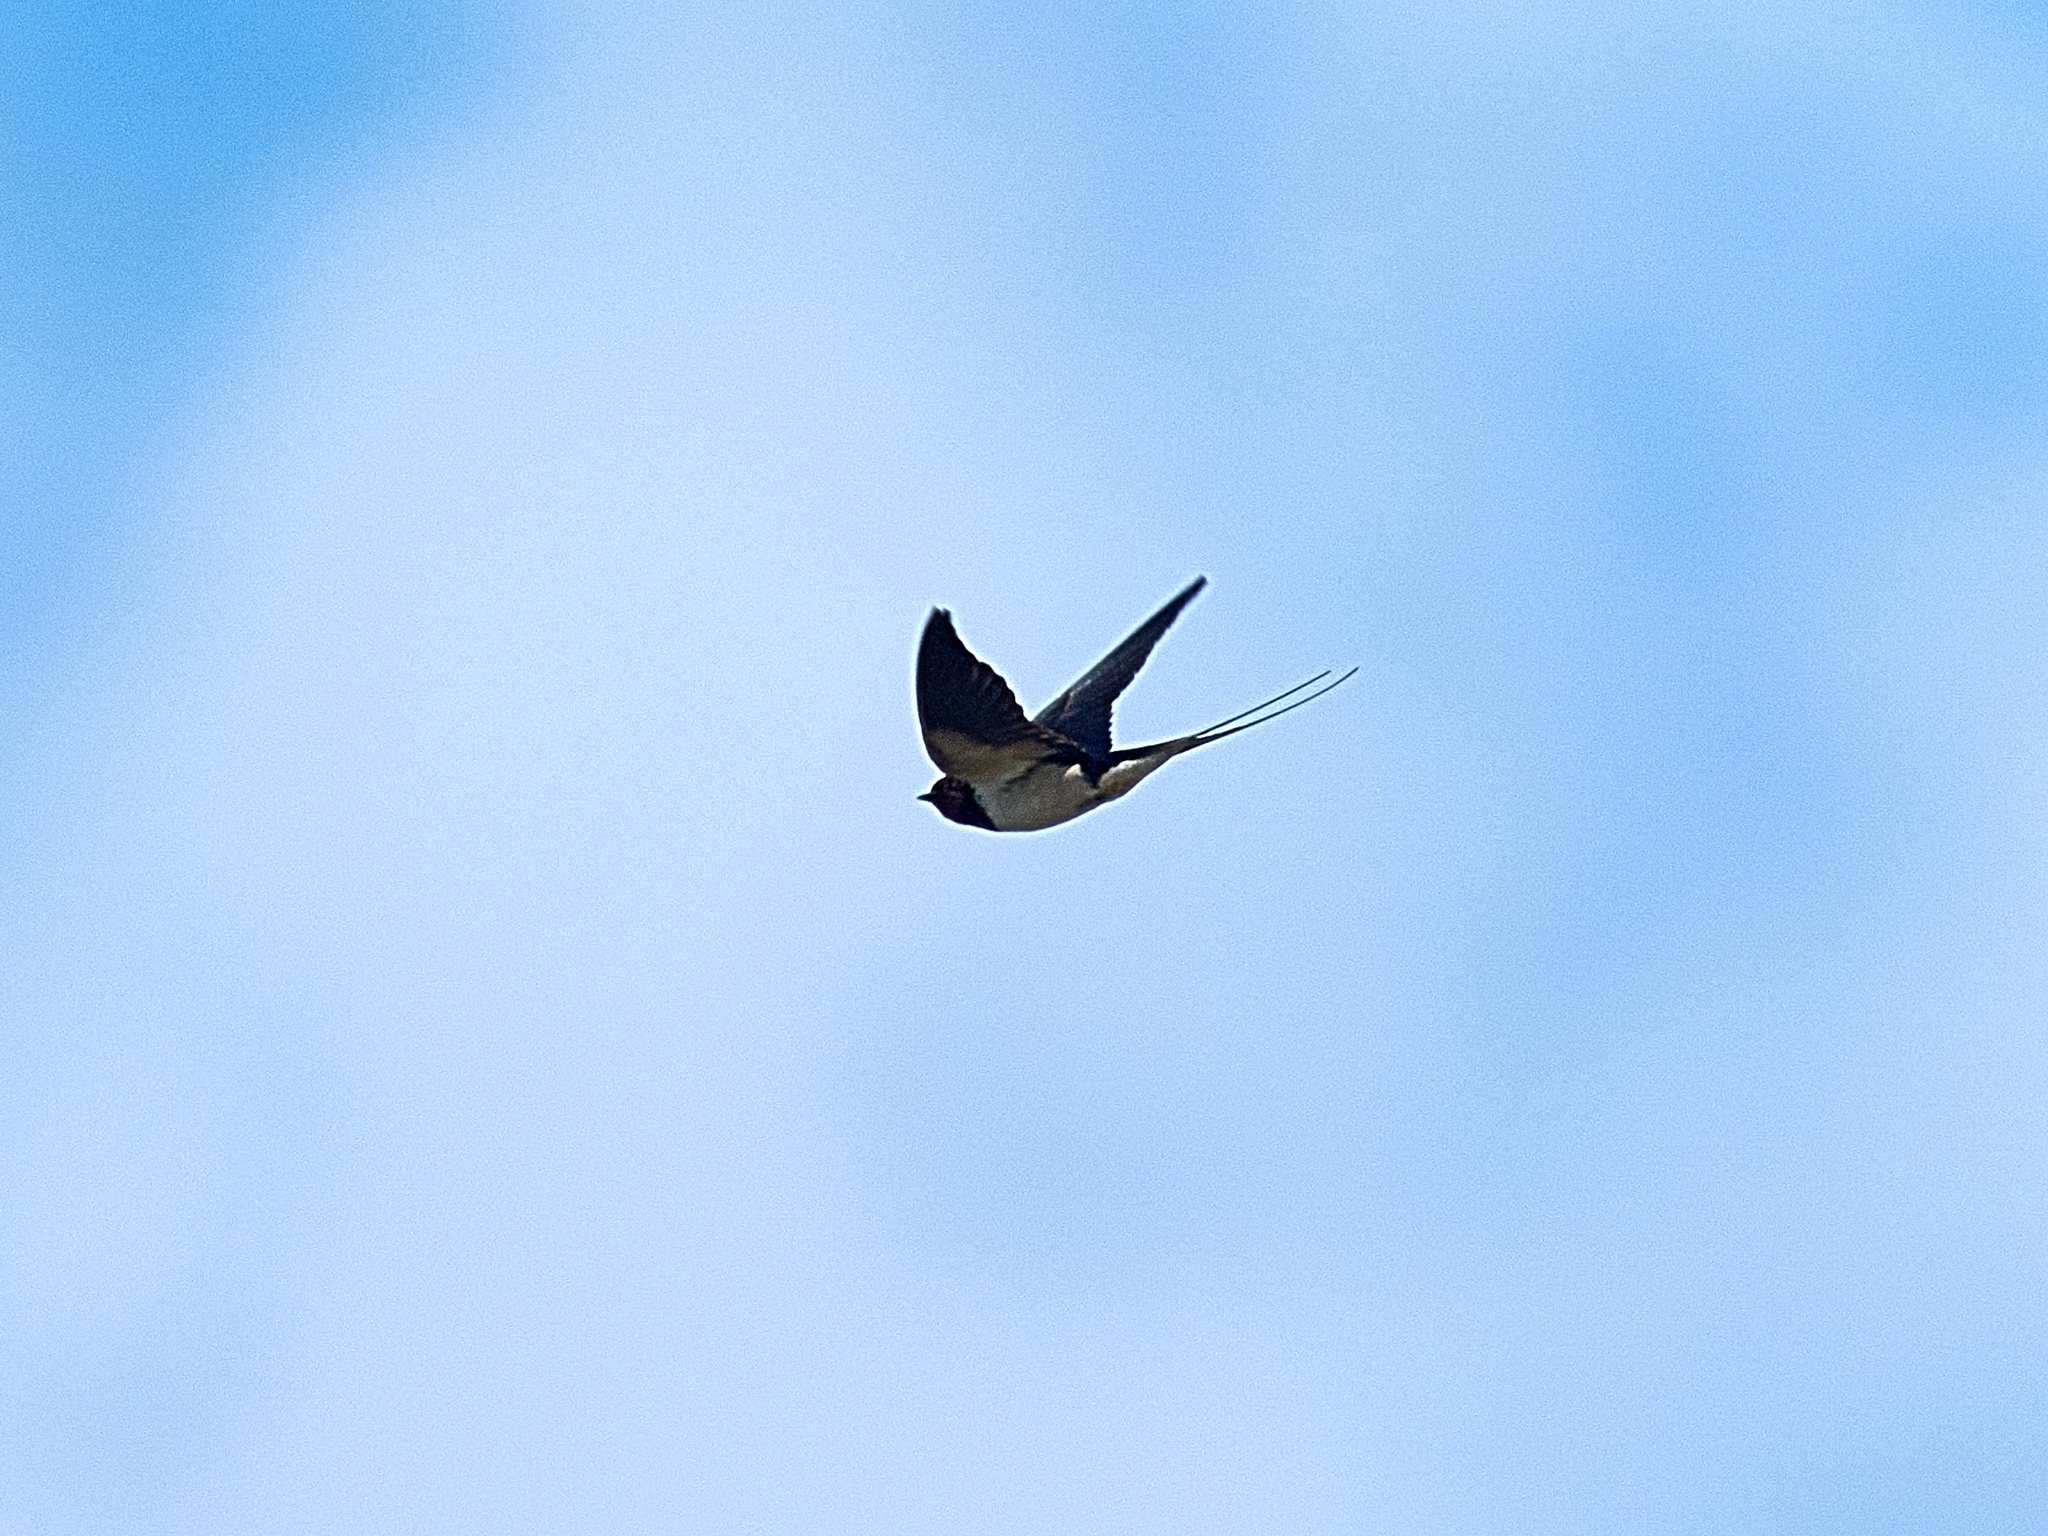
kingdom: Animalia
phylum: Chordata
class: Aves
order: Passeriformes
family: Hirundinidae
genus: Hirundo
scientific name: Hirundo rustica
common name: Barn swallow
